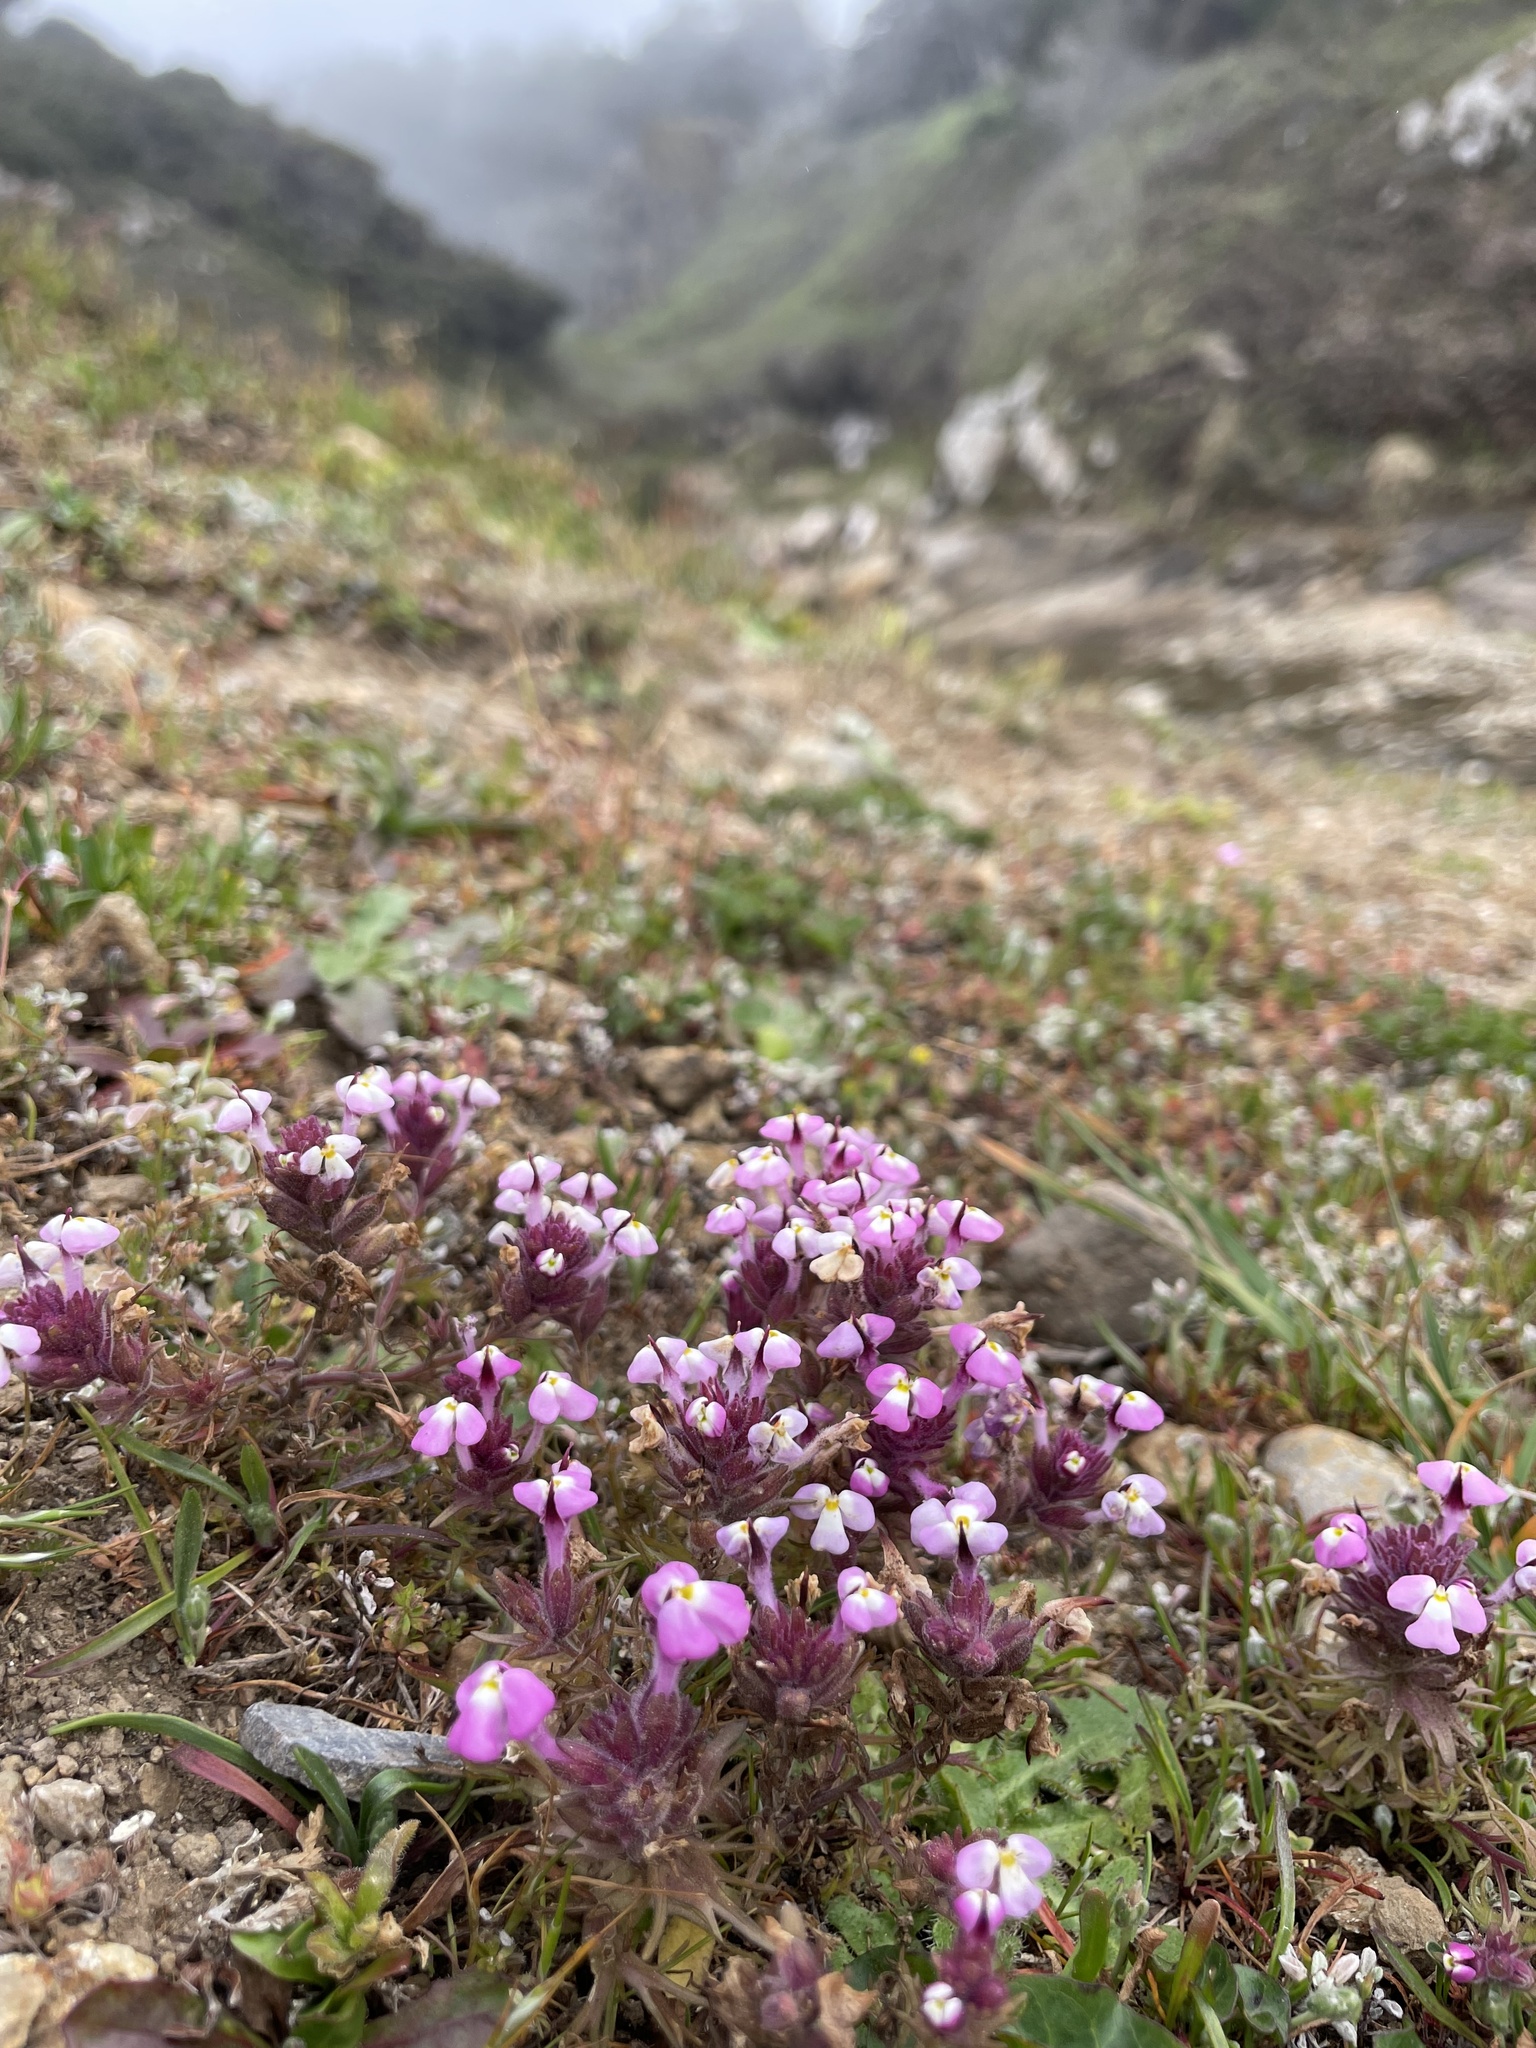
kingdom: Plantae
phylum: Tracheophyta
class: Magnoliopsida
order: Lamiales
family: Orobanchaceae
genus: Triphysaria
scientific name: Triphysaria eriantha
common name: Johnny-tuck
